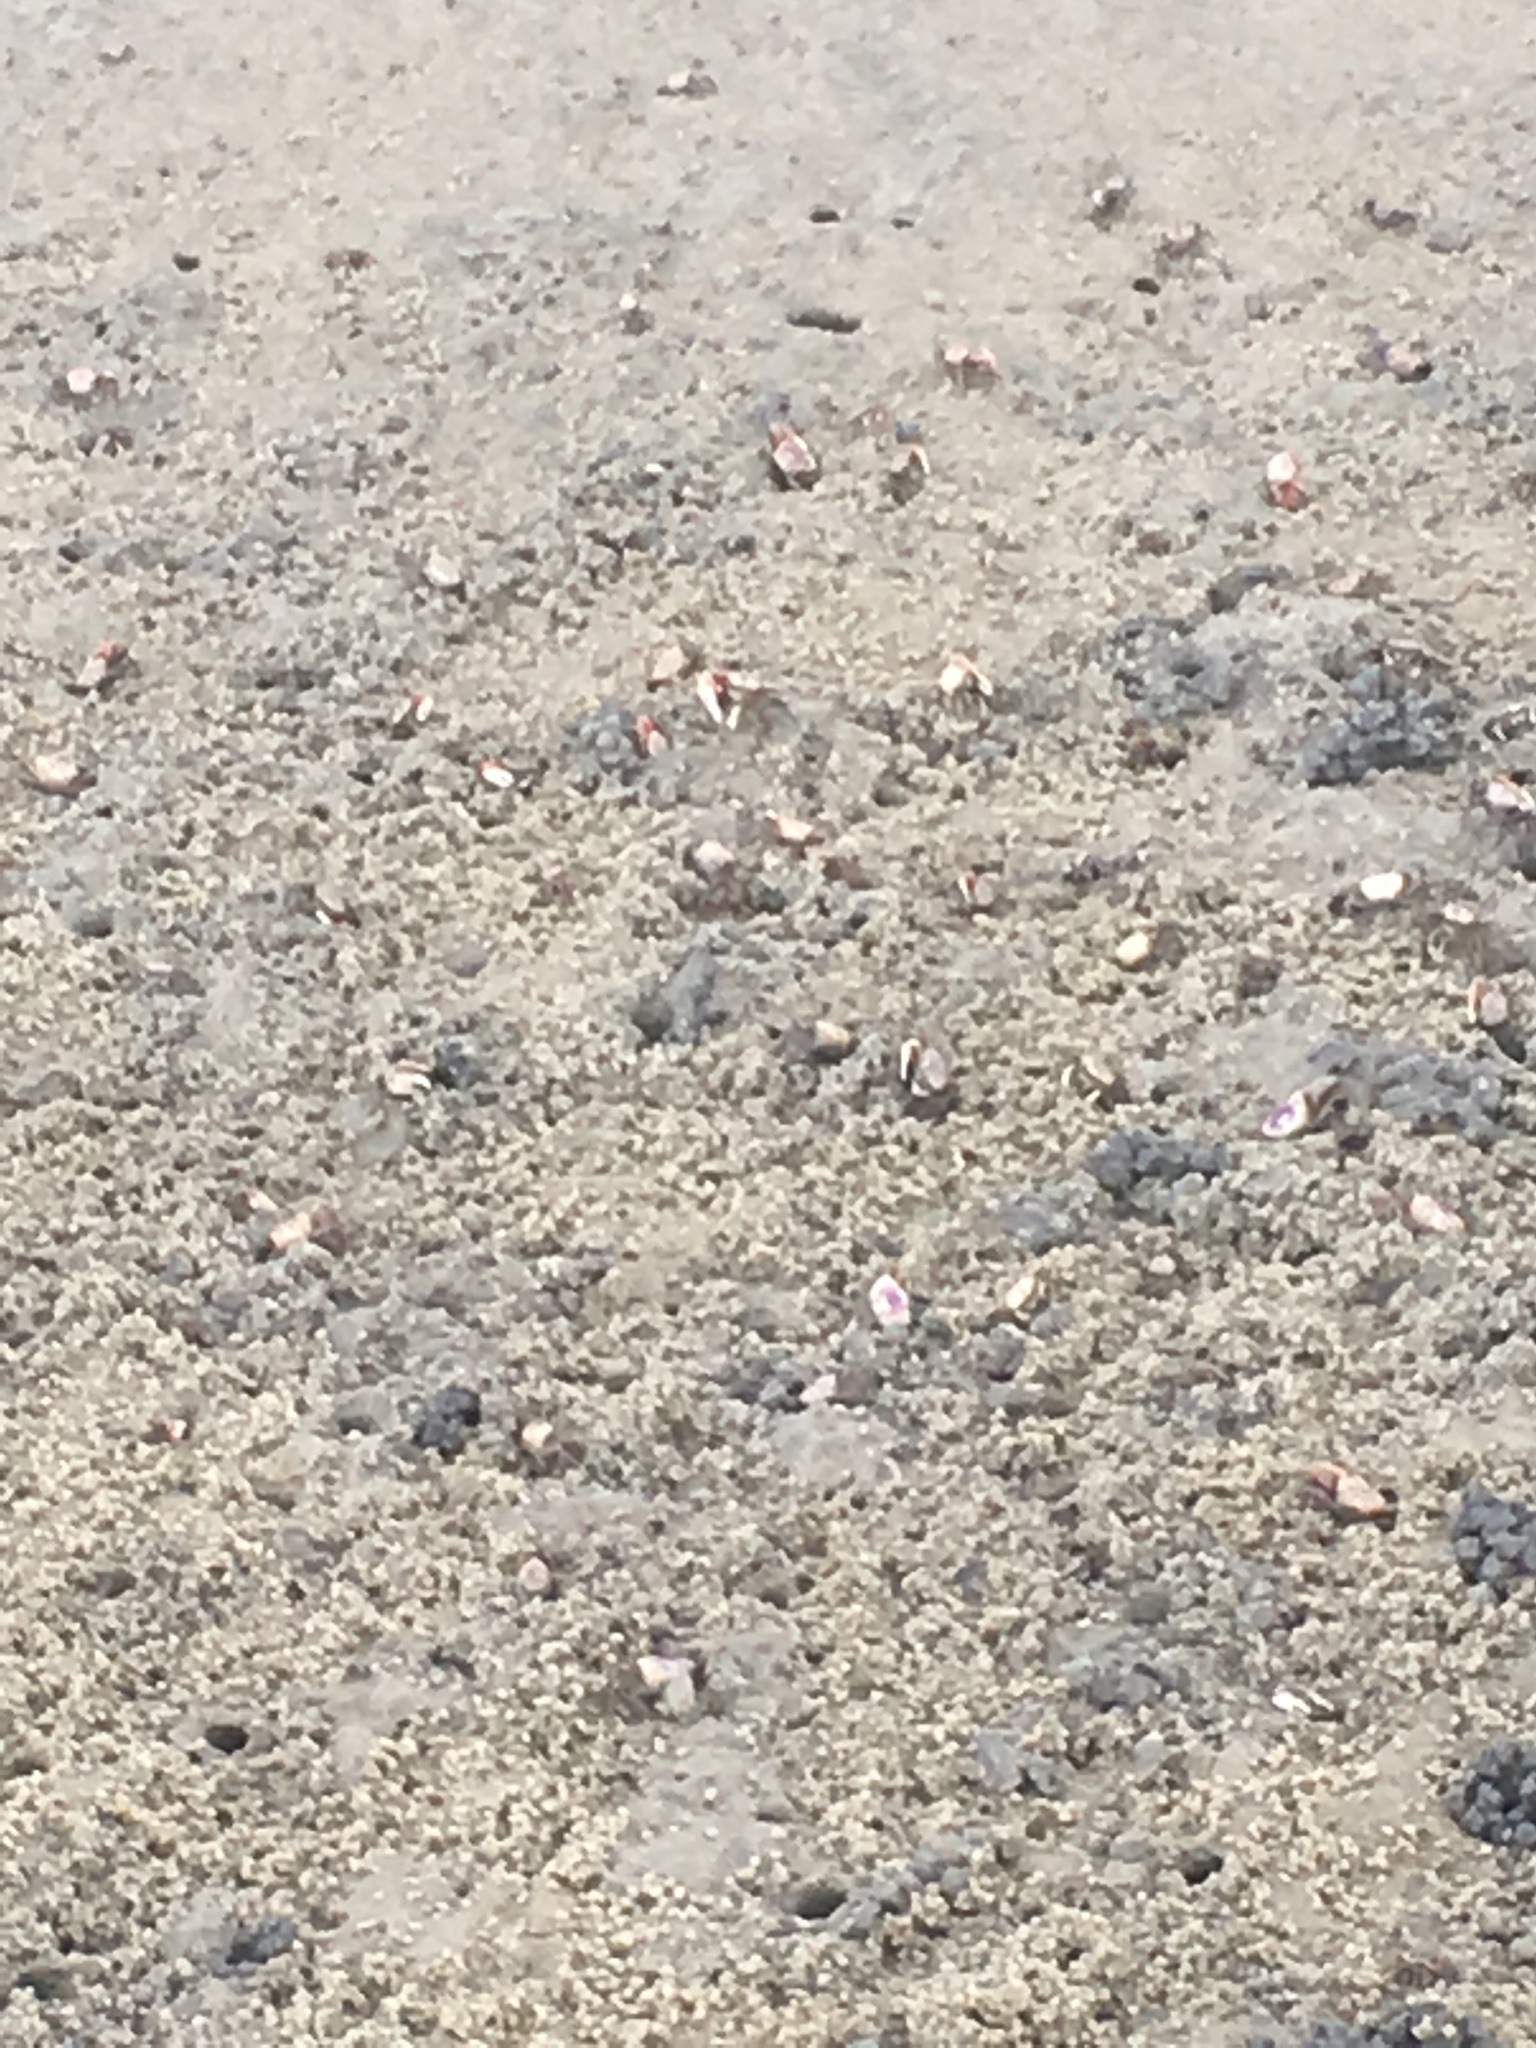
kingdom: Animalia
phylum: Arthropoda
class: Malacostraca
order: Decapoda
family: Ocypodidae
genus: Leptuca
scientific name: Leptuca pugilator
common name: Atlantic sand fiddler crab
